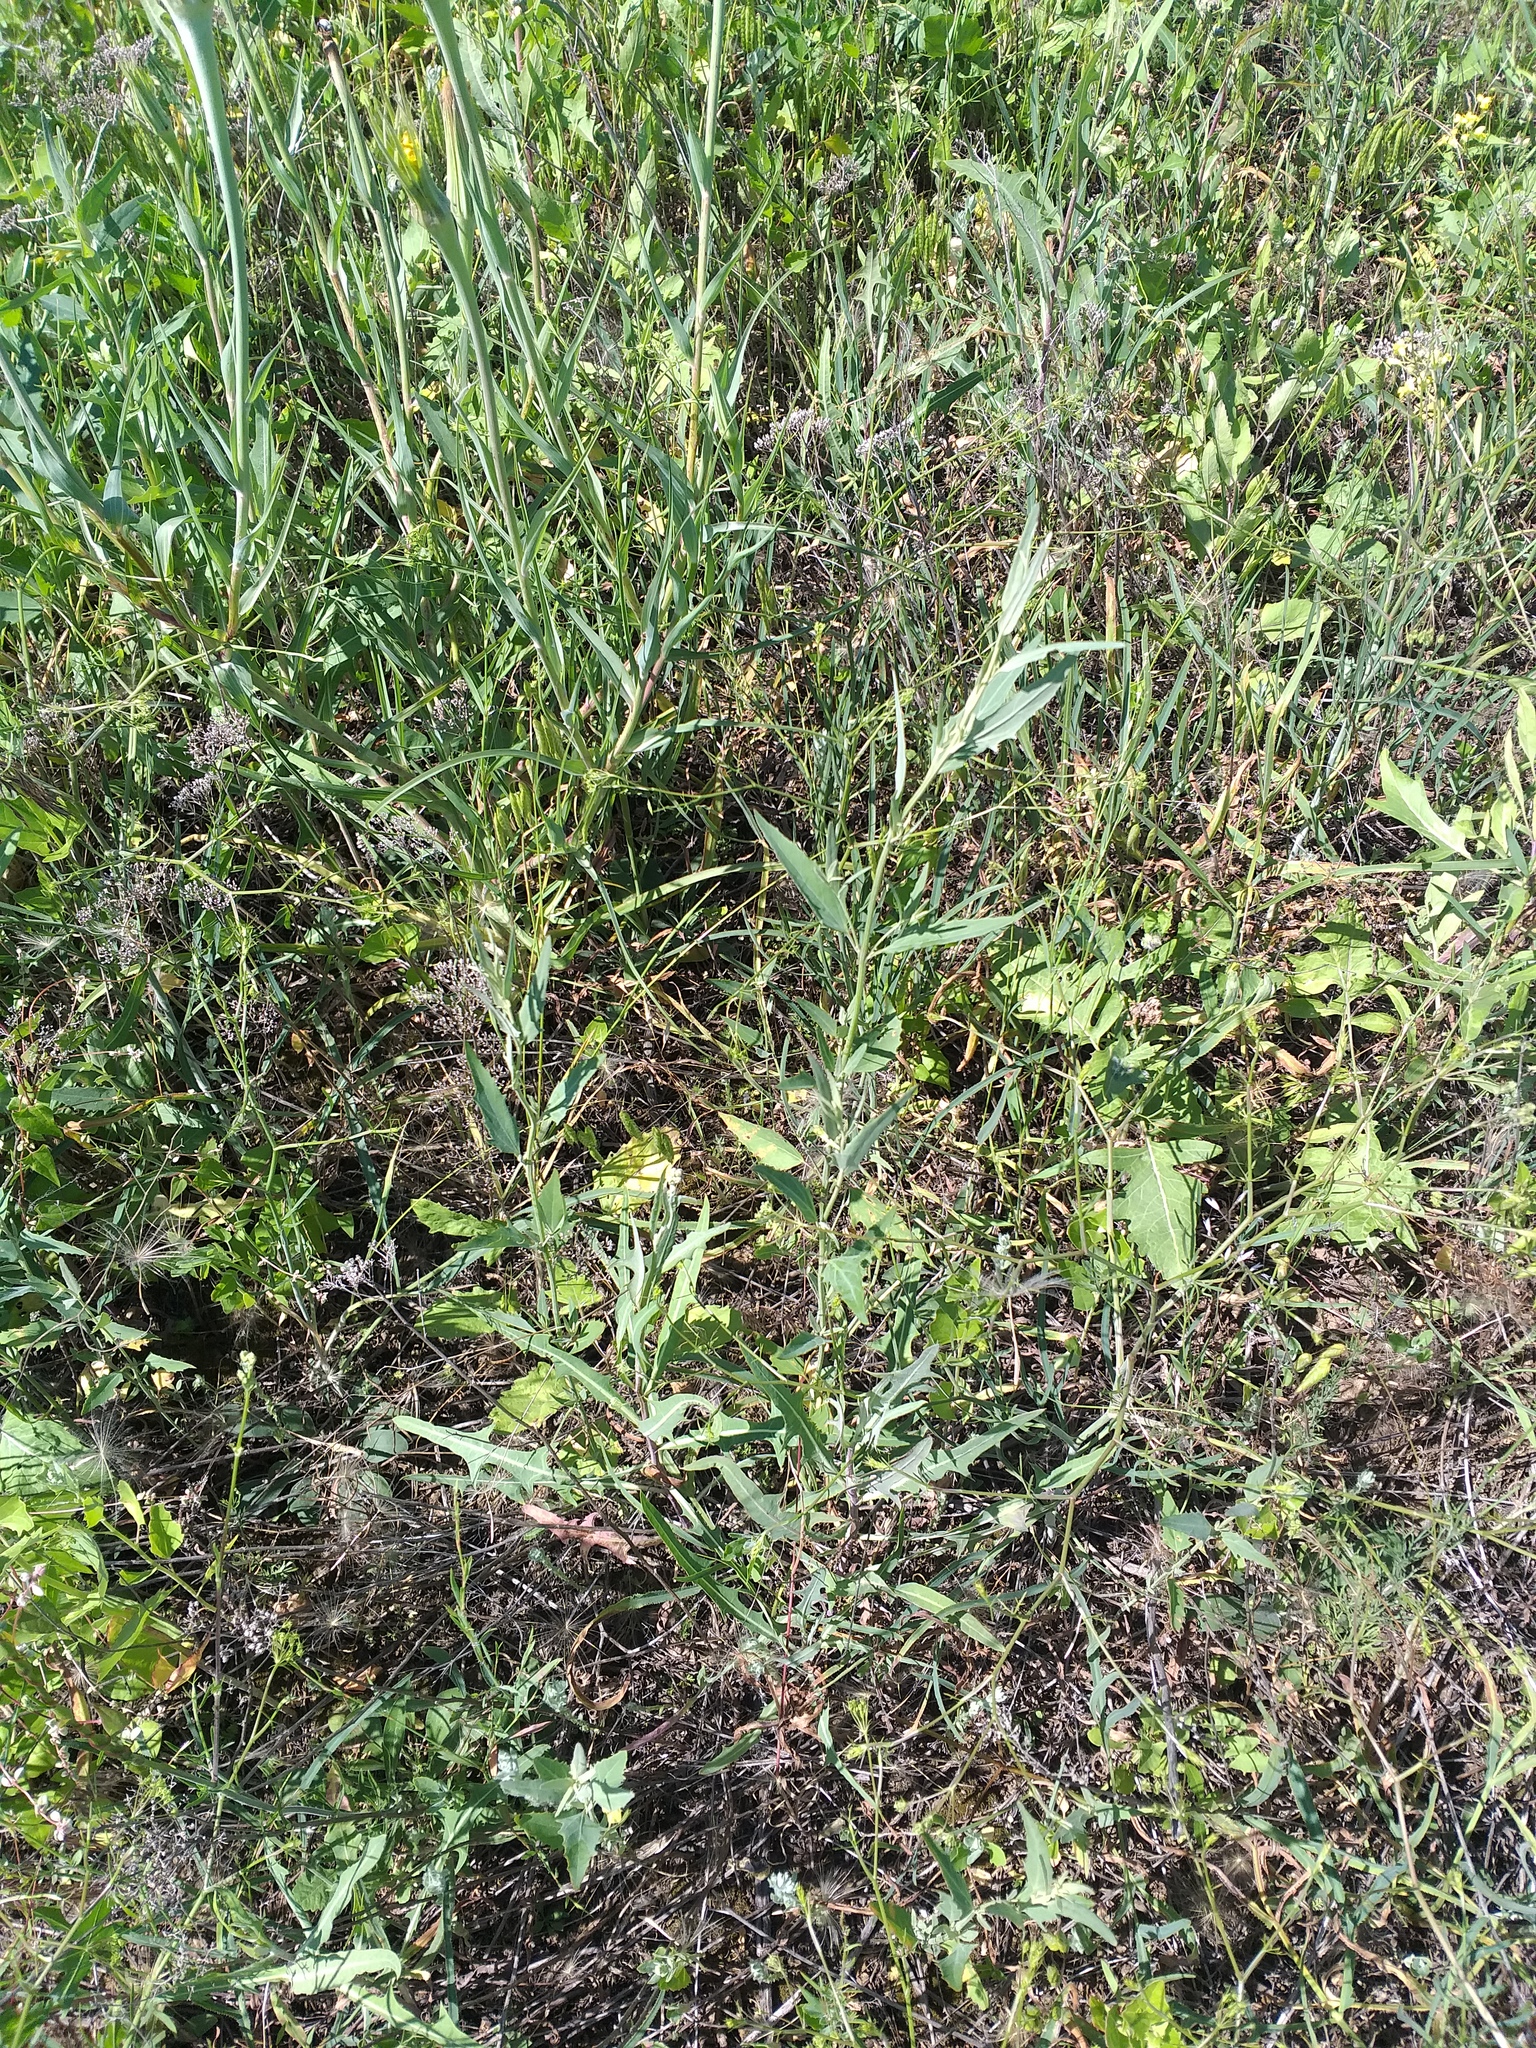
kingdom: Plantae
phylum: Tracheophyta
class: Magnoliopsida
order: Caryophyllales
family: Amaranthaceae
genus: Atriplex
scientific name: Atriplex oblongifolia
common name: Oblongleaf orache
